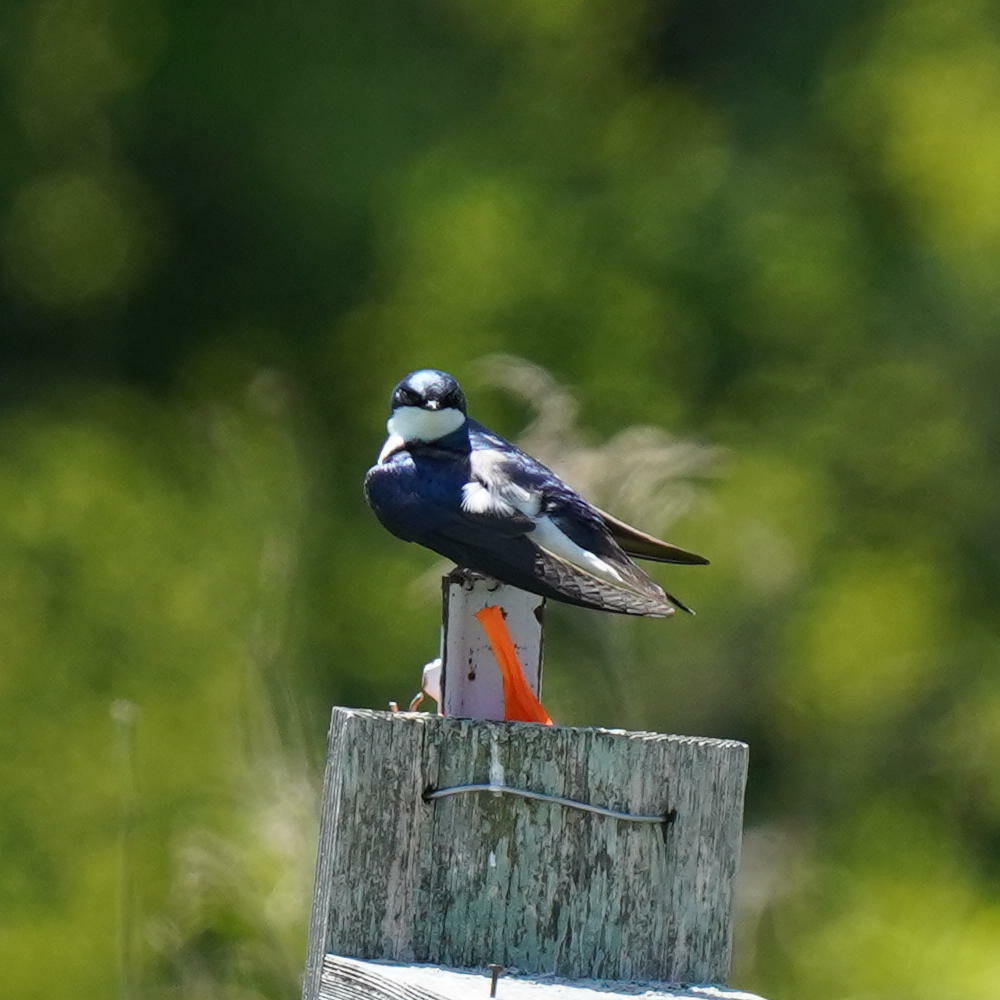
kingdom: Animalia
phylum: Chordata
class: Aves
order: Passeriformes
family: Hirundinidae
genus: Tachycineta
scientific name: Tachycineta bicolor
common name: Tree swallow
